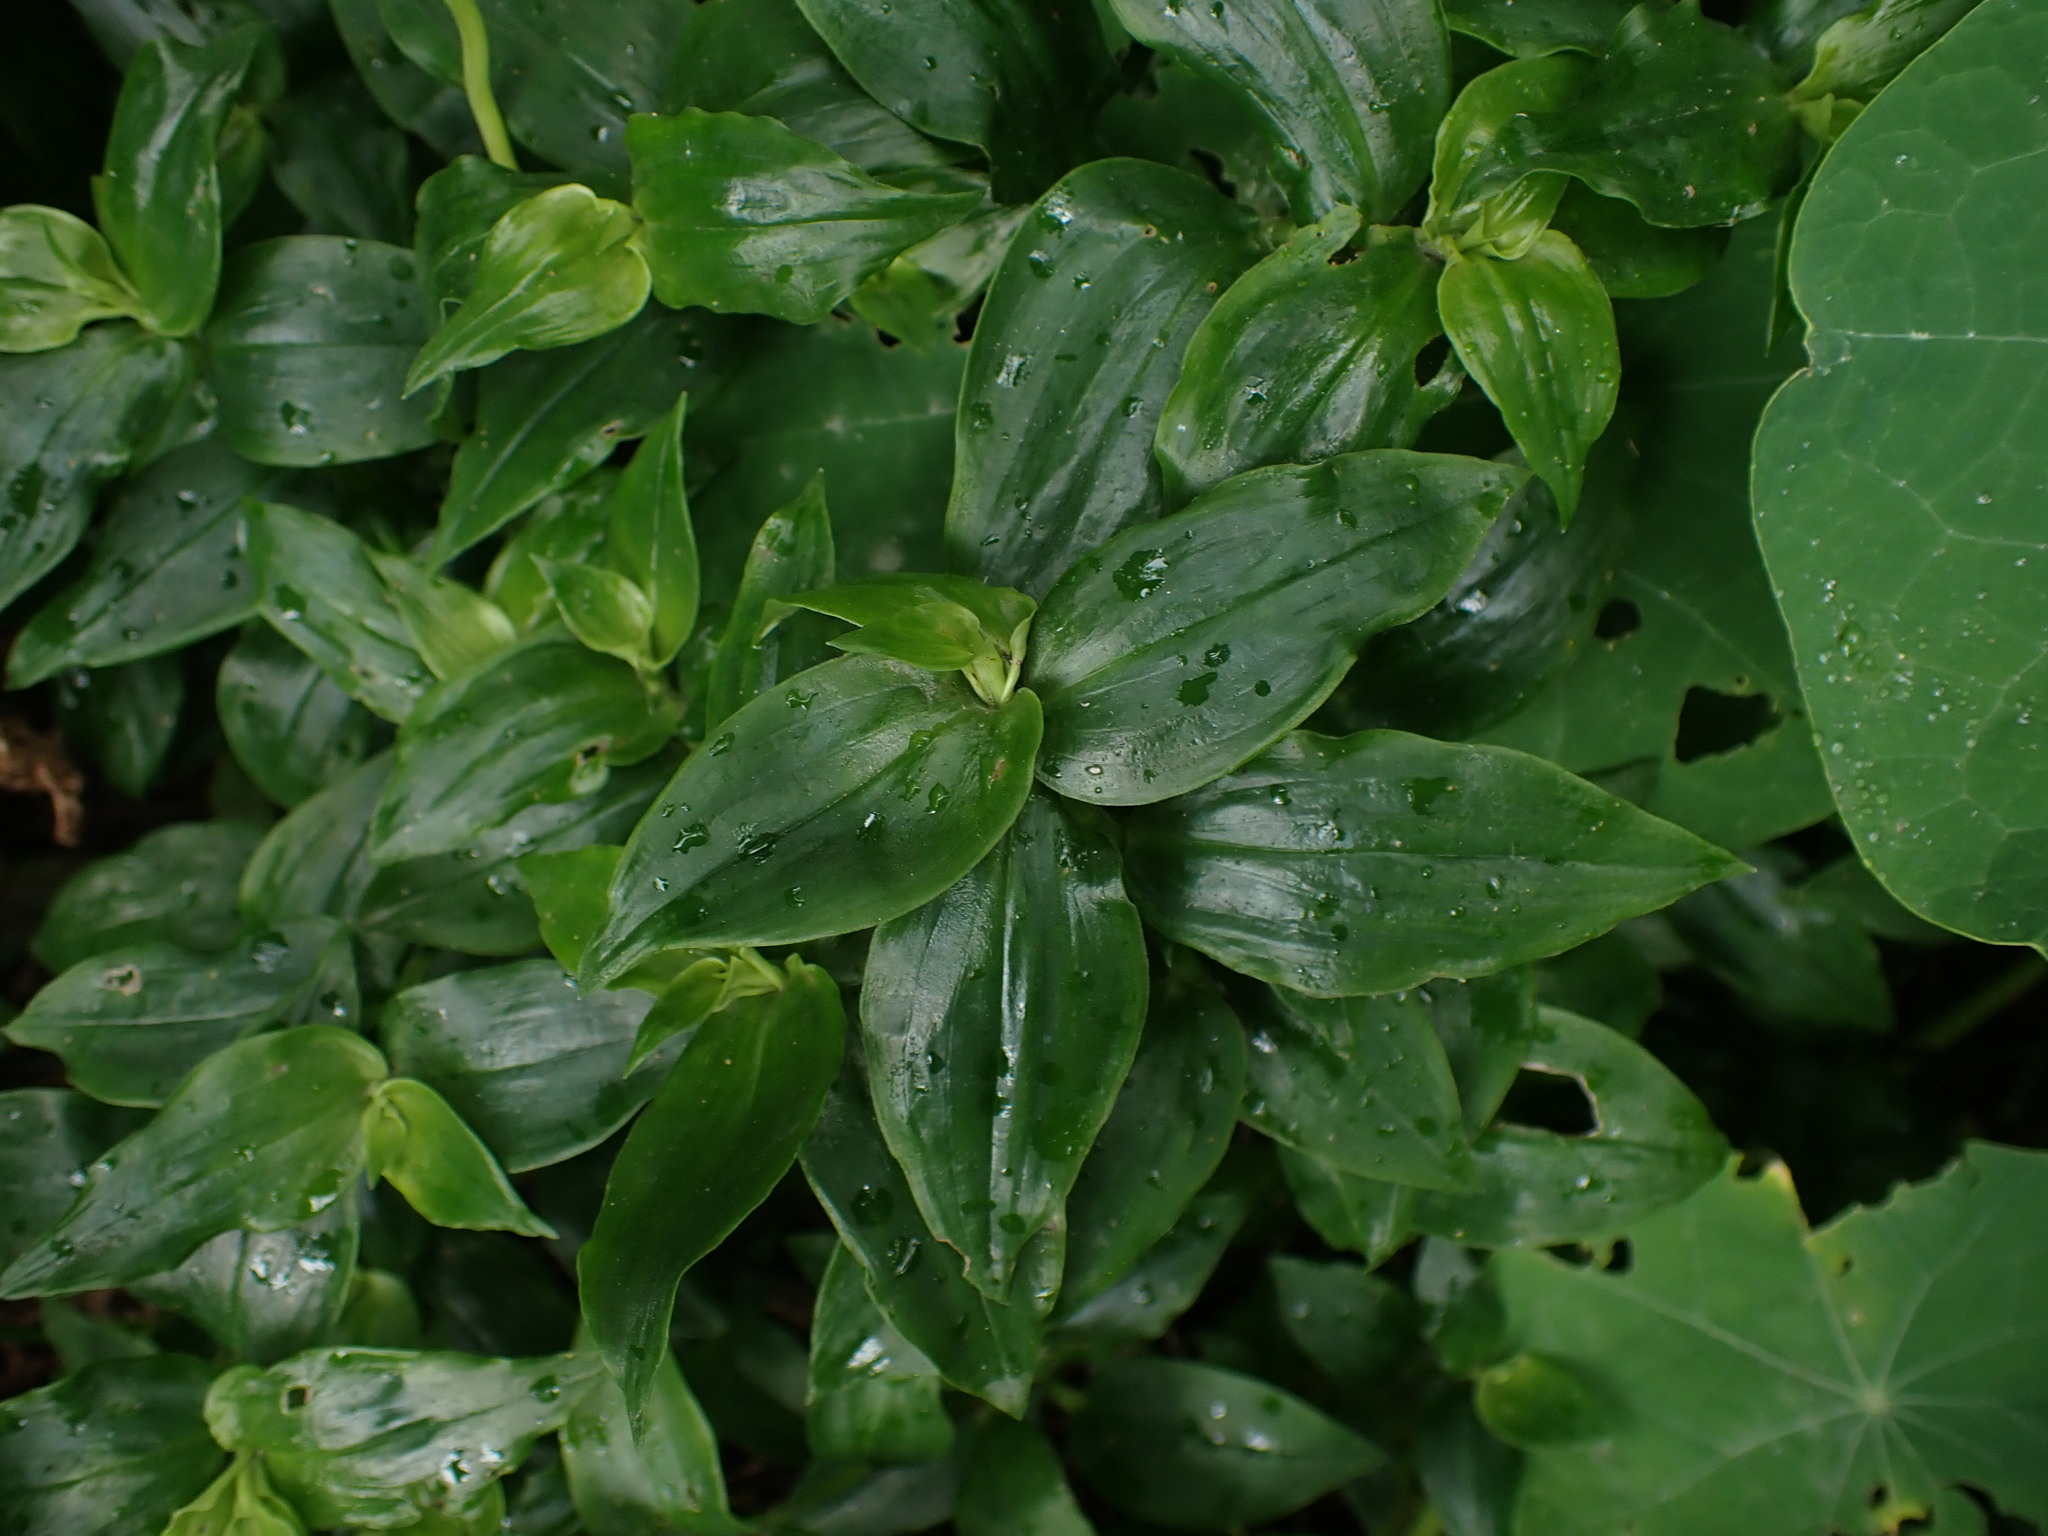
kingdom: Plantae
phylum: Tracheophyta
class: Liliopsida
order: Commelinales
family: Commelinaceae
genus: Tradescantia
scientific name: Tradescantia fluminensis
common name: Wandering-jew
